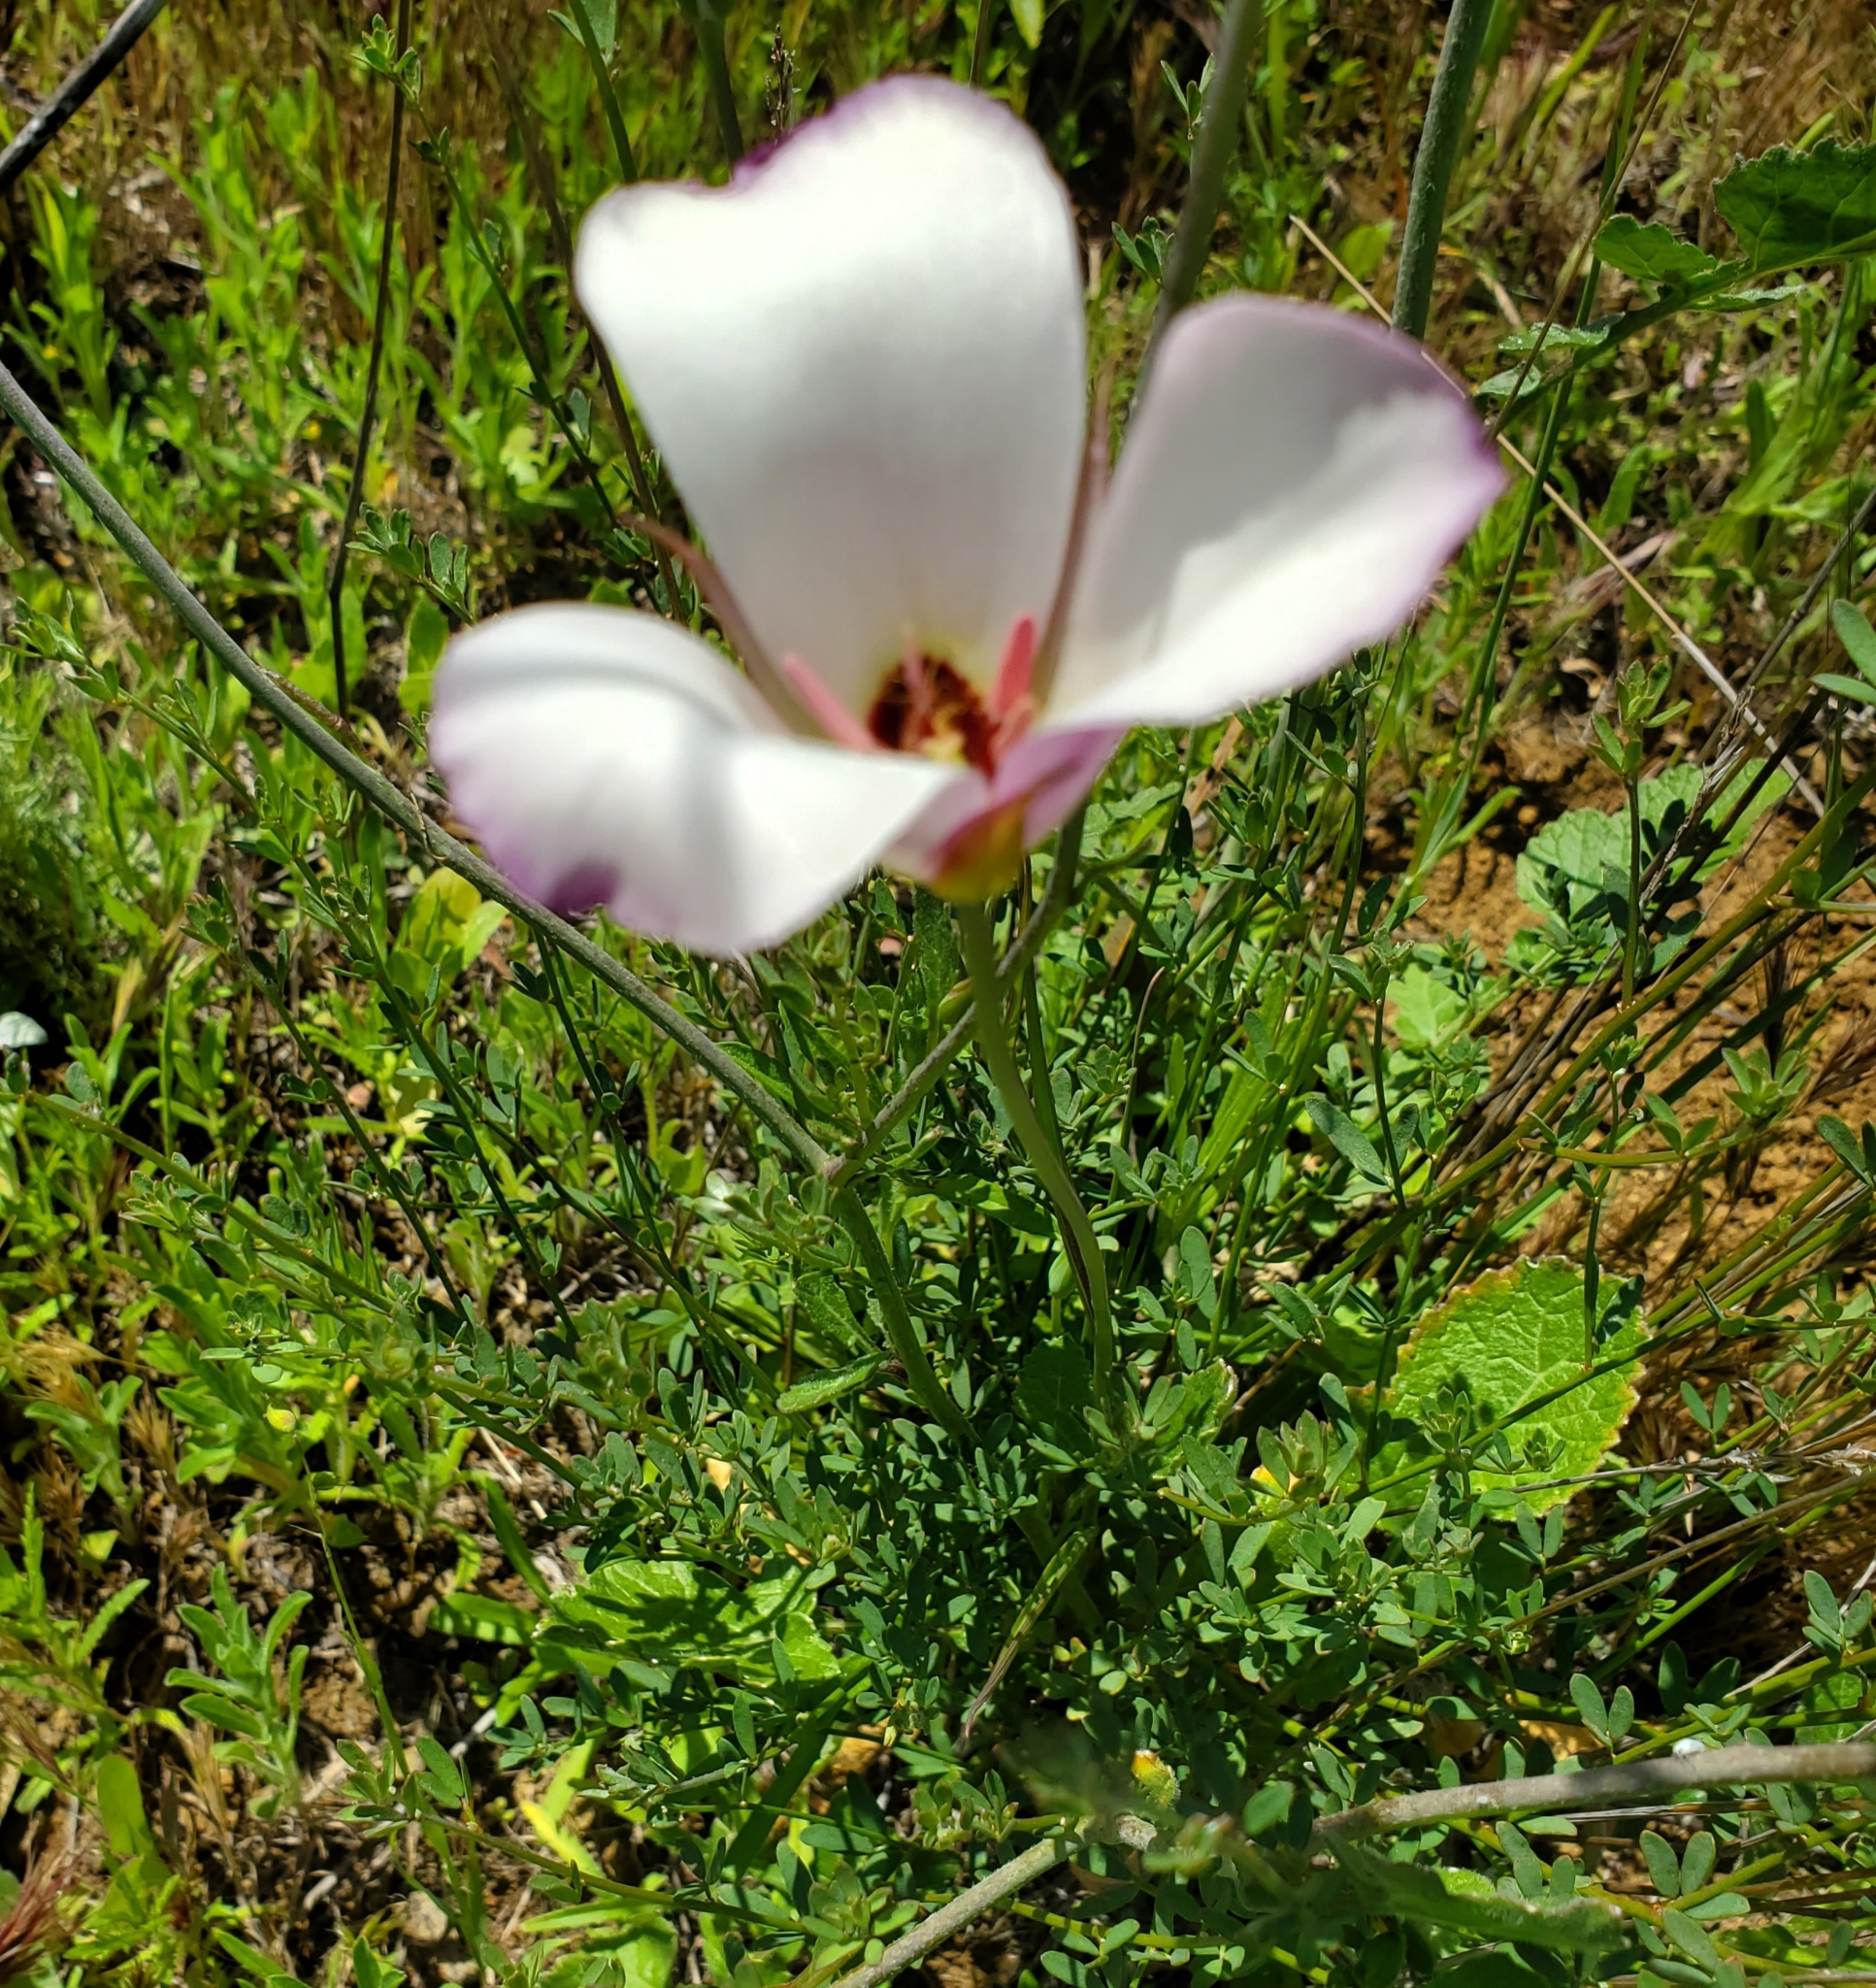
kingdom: Plantae
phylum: Tracheophyta
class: Liliopsida
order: Liliales
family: Liliaceae
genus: Calochortus
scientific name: Calochortus catalinae
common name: Catalina mariposa-lily
